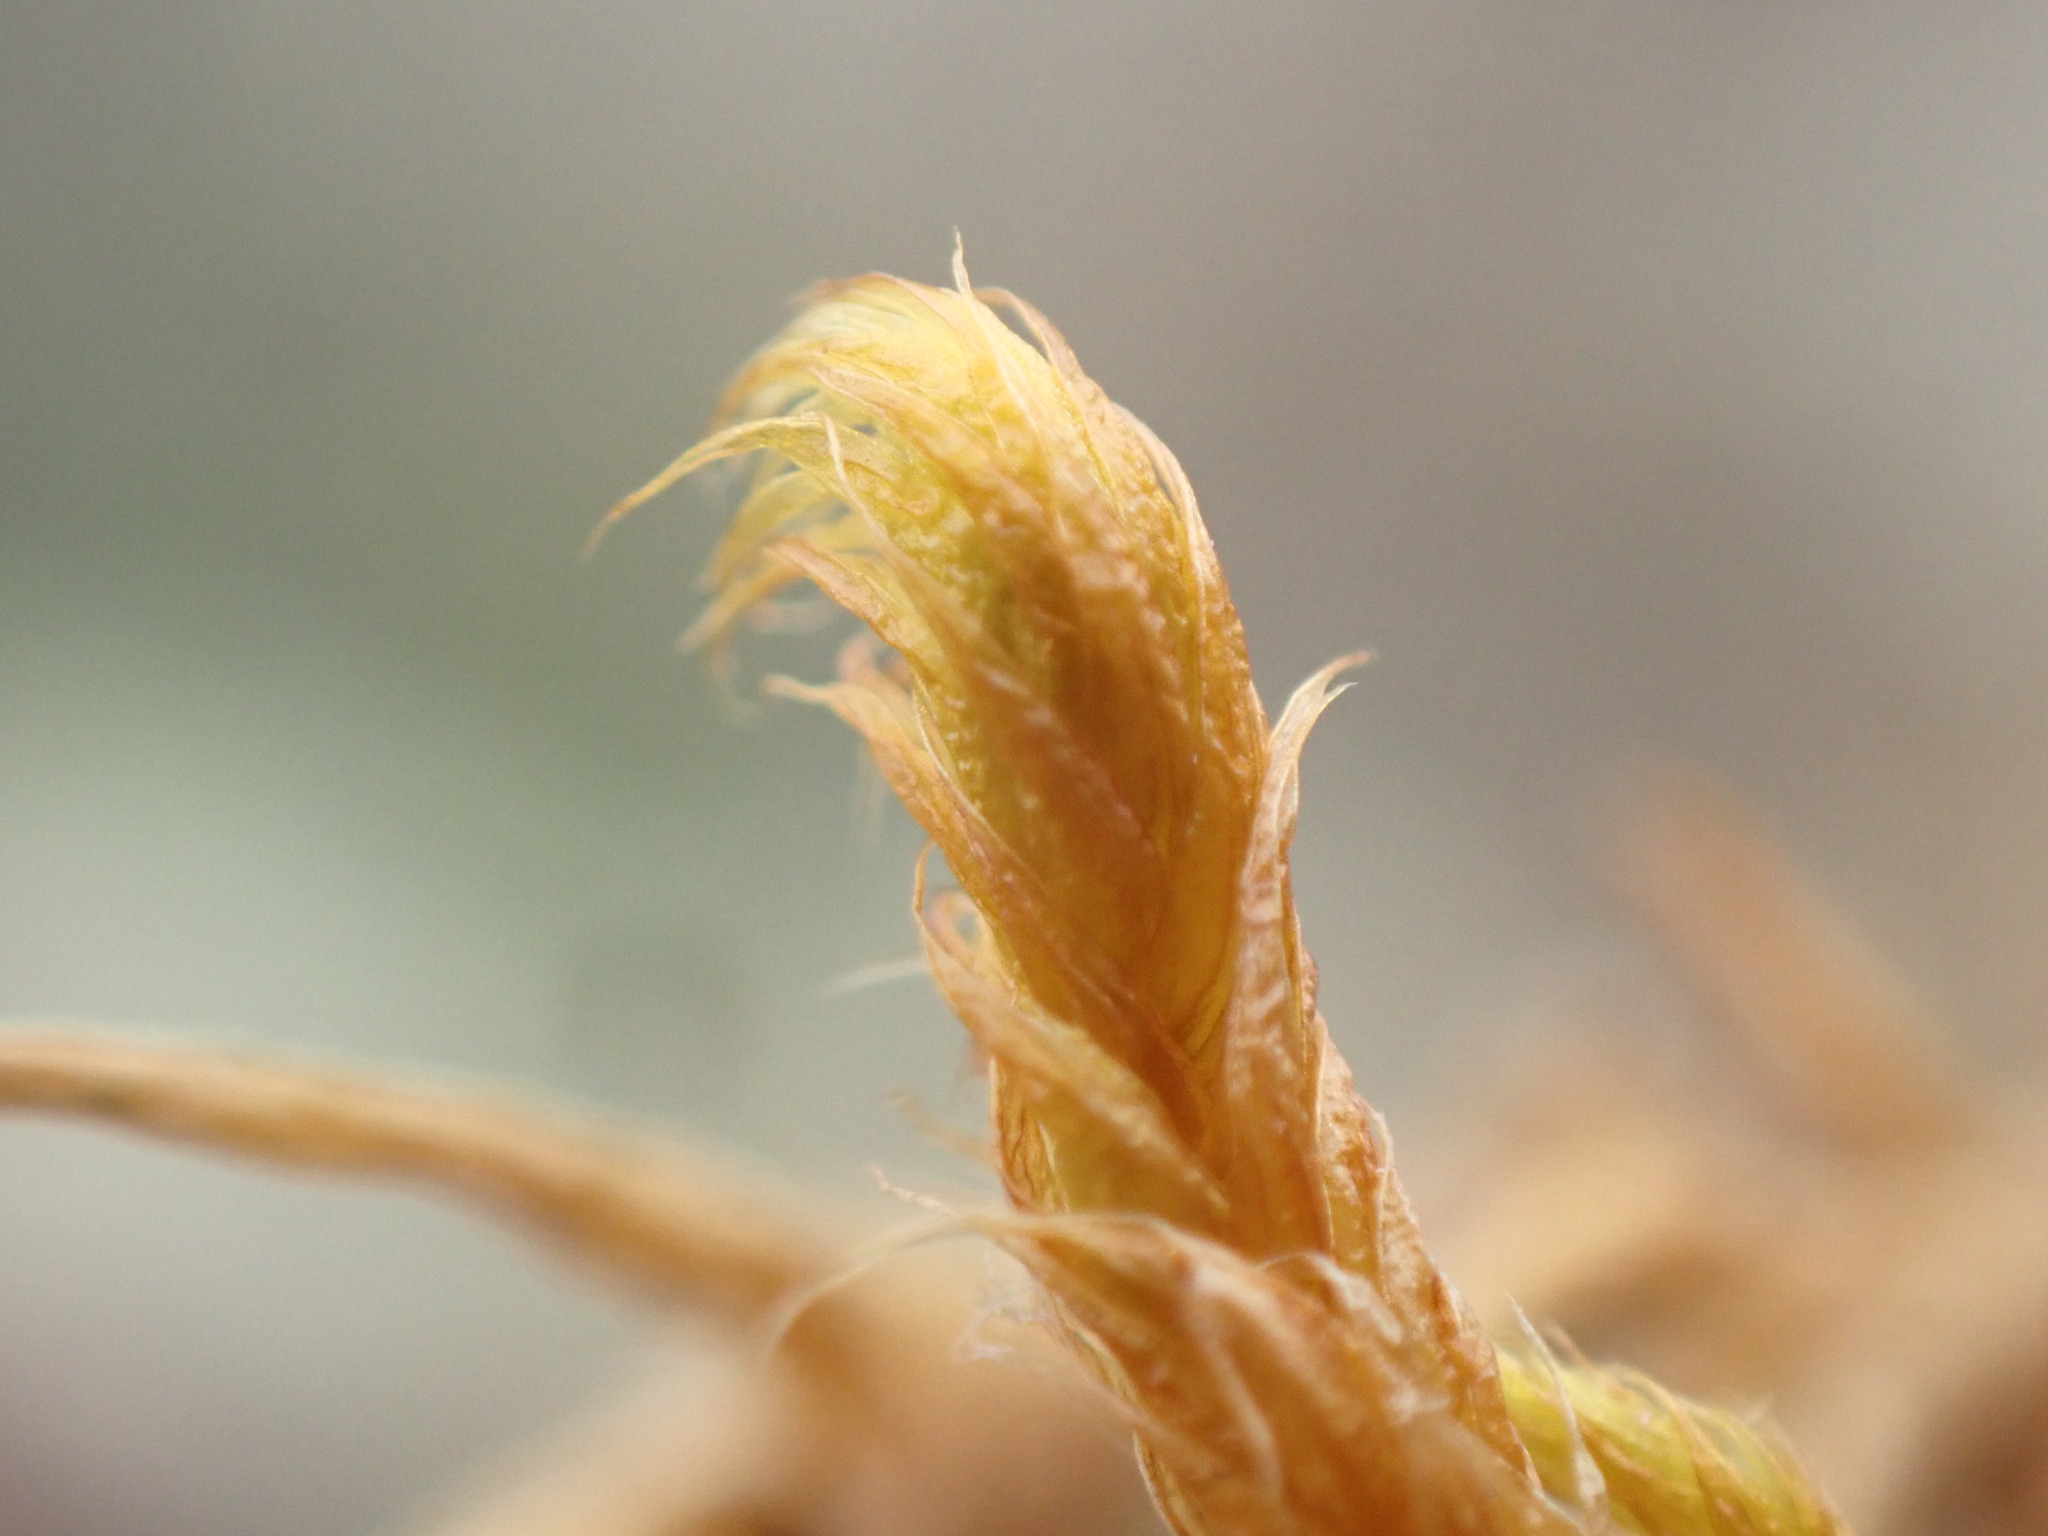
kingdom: Plantae
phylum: Bryophyta
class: Bryopsida
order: Hypnales
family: Rhytidiaceae
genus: Rhytidium
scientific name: Rhytidium rugosum
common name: Wrinkle-leaved moss
